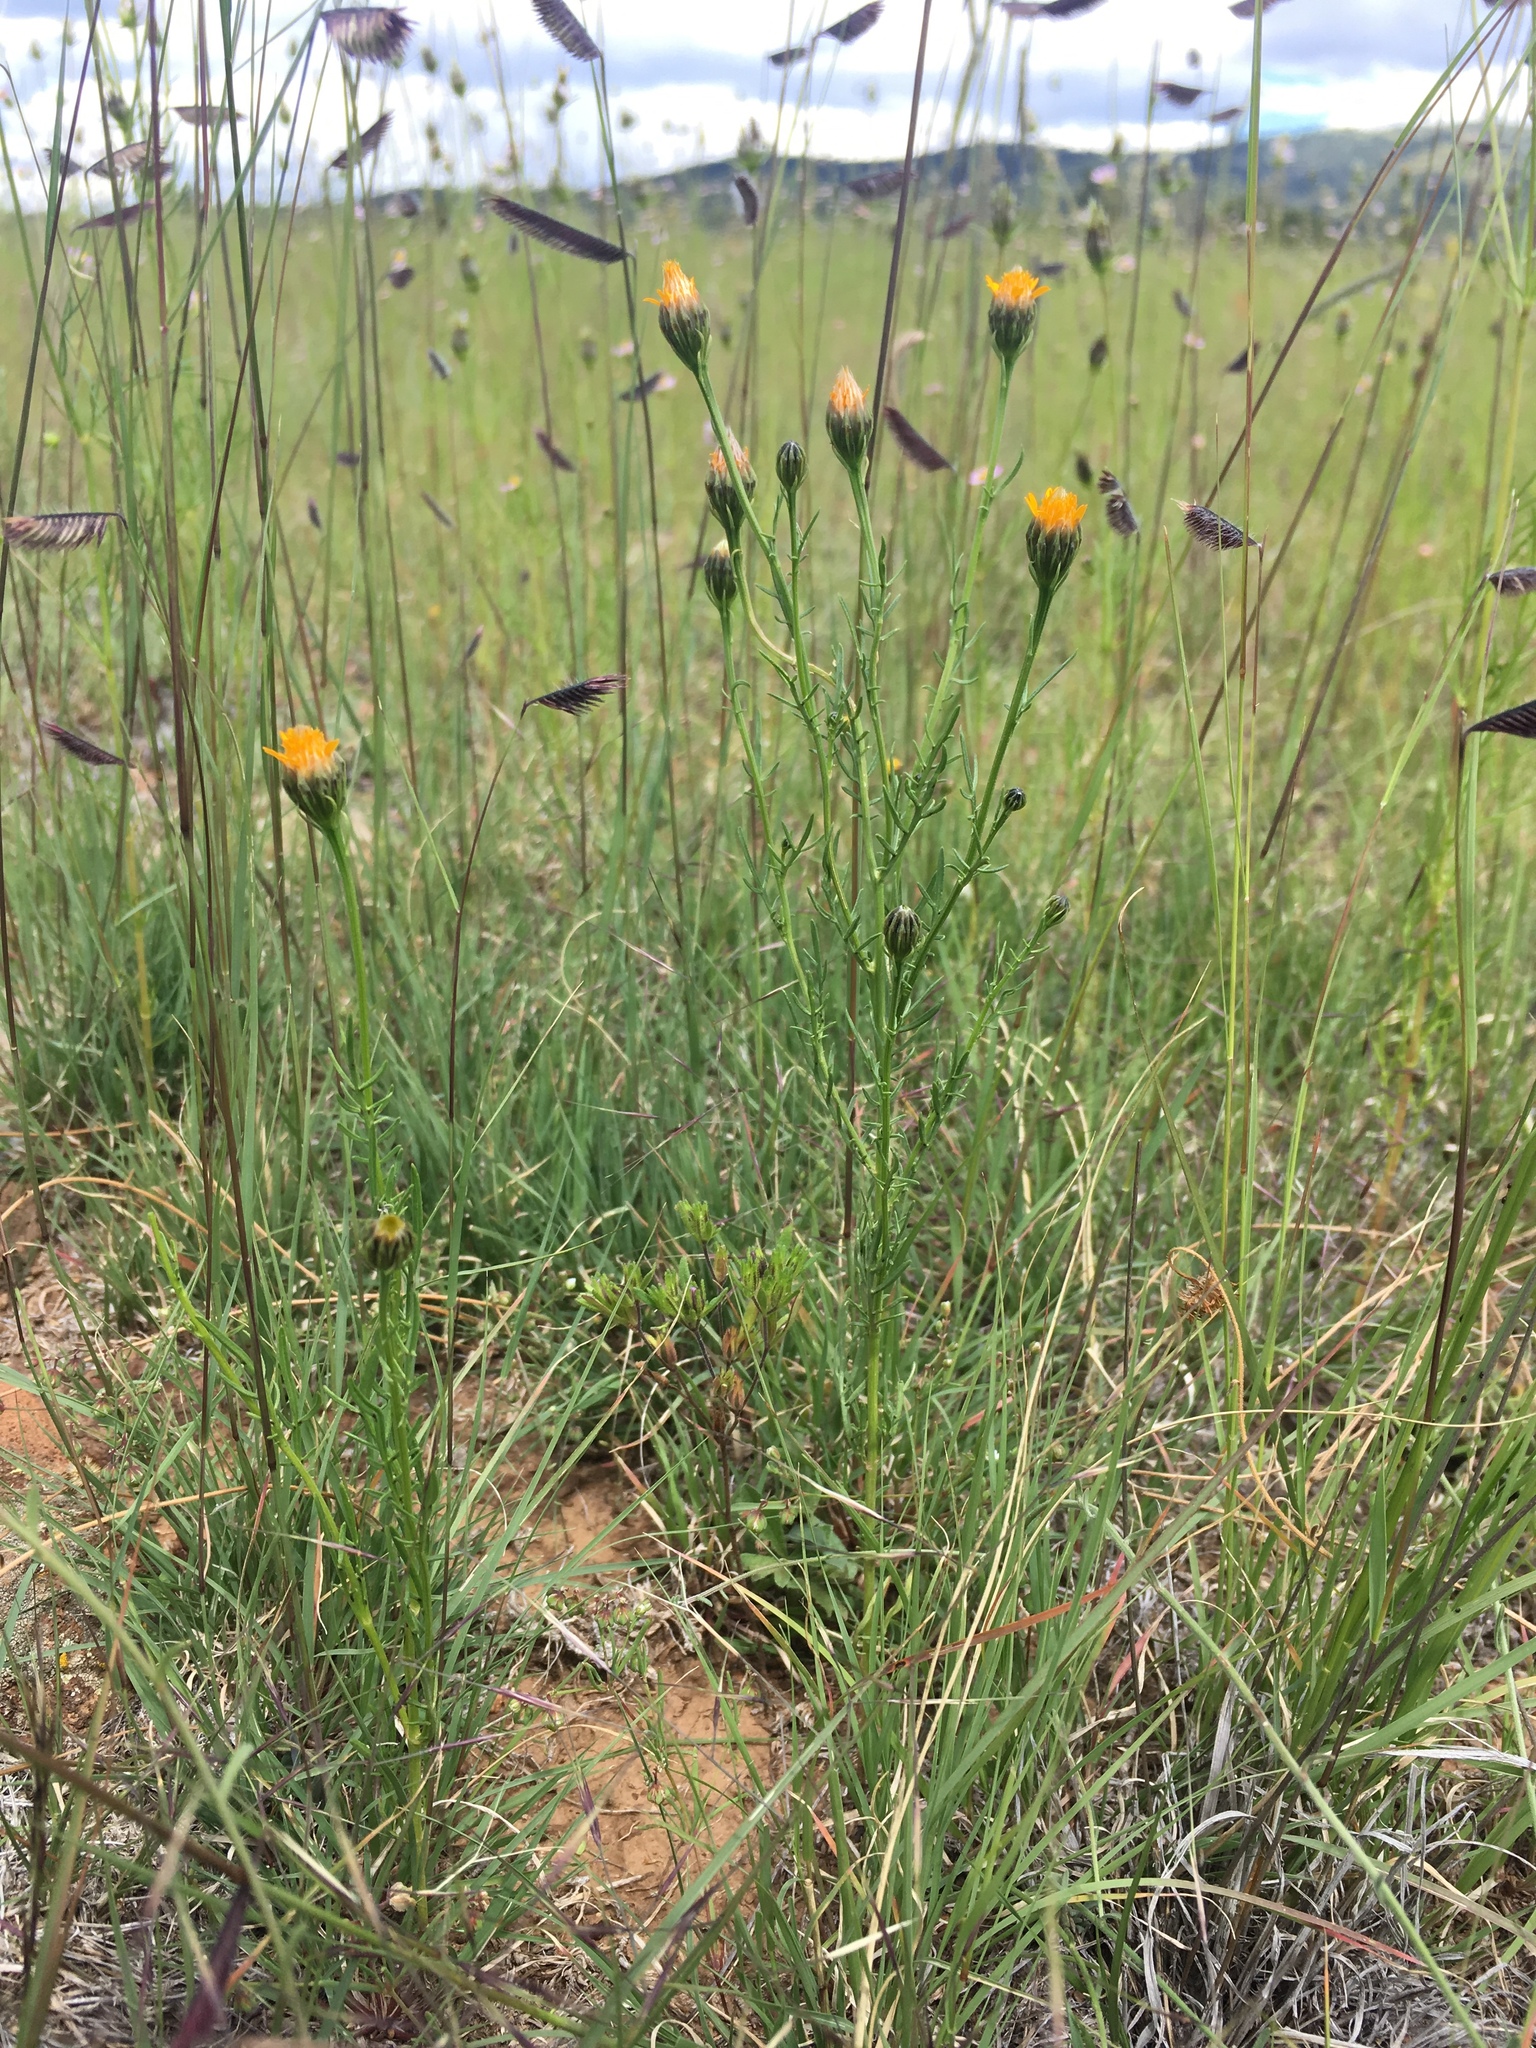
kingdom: Plantae
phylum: Tracheophyta
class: Magnoliopsida
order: Asterales
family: Asteraceae
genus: Adenophyllum
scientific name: Adenophyllum wrightii
